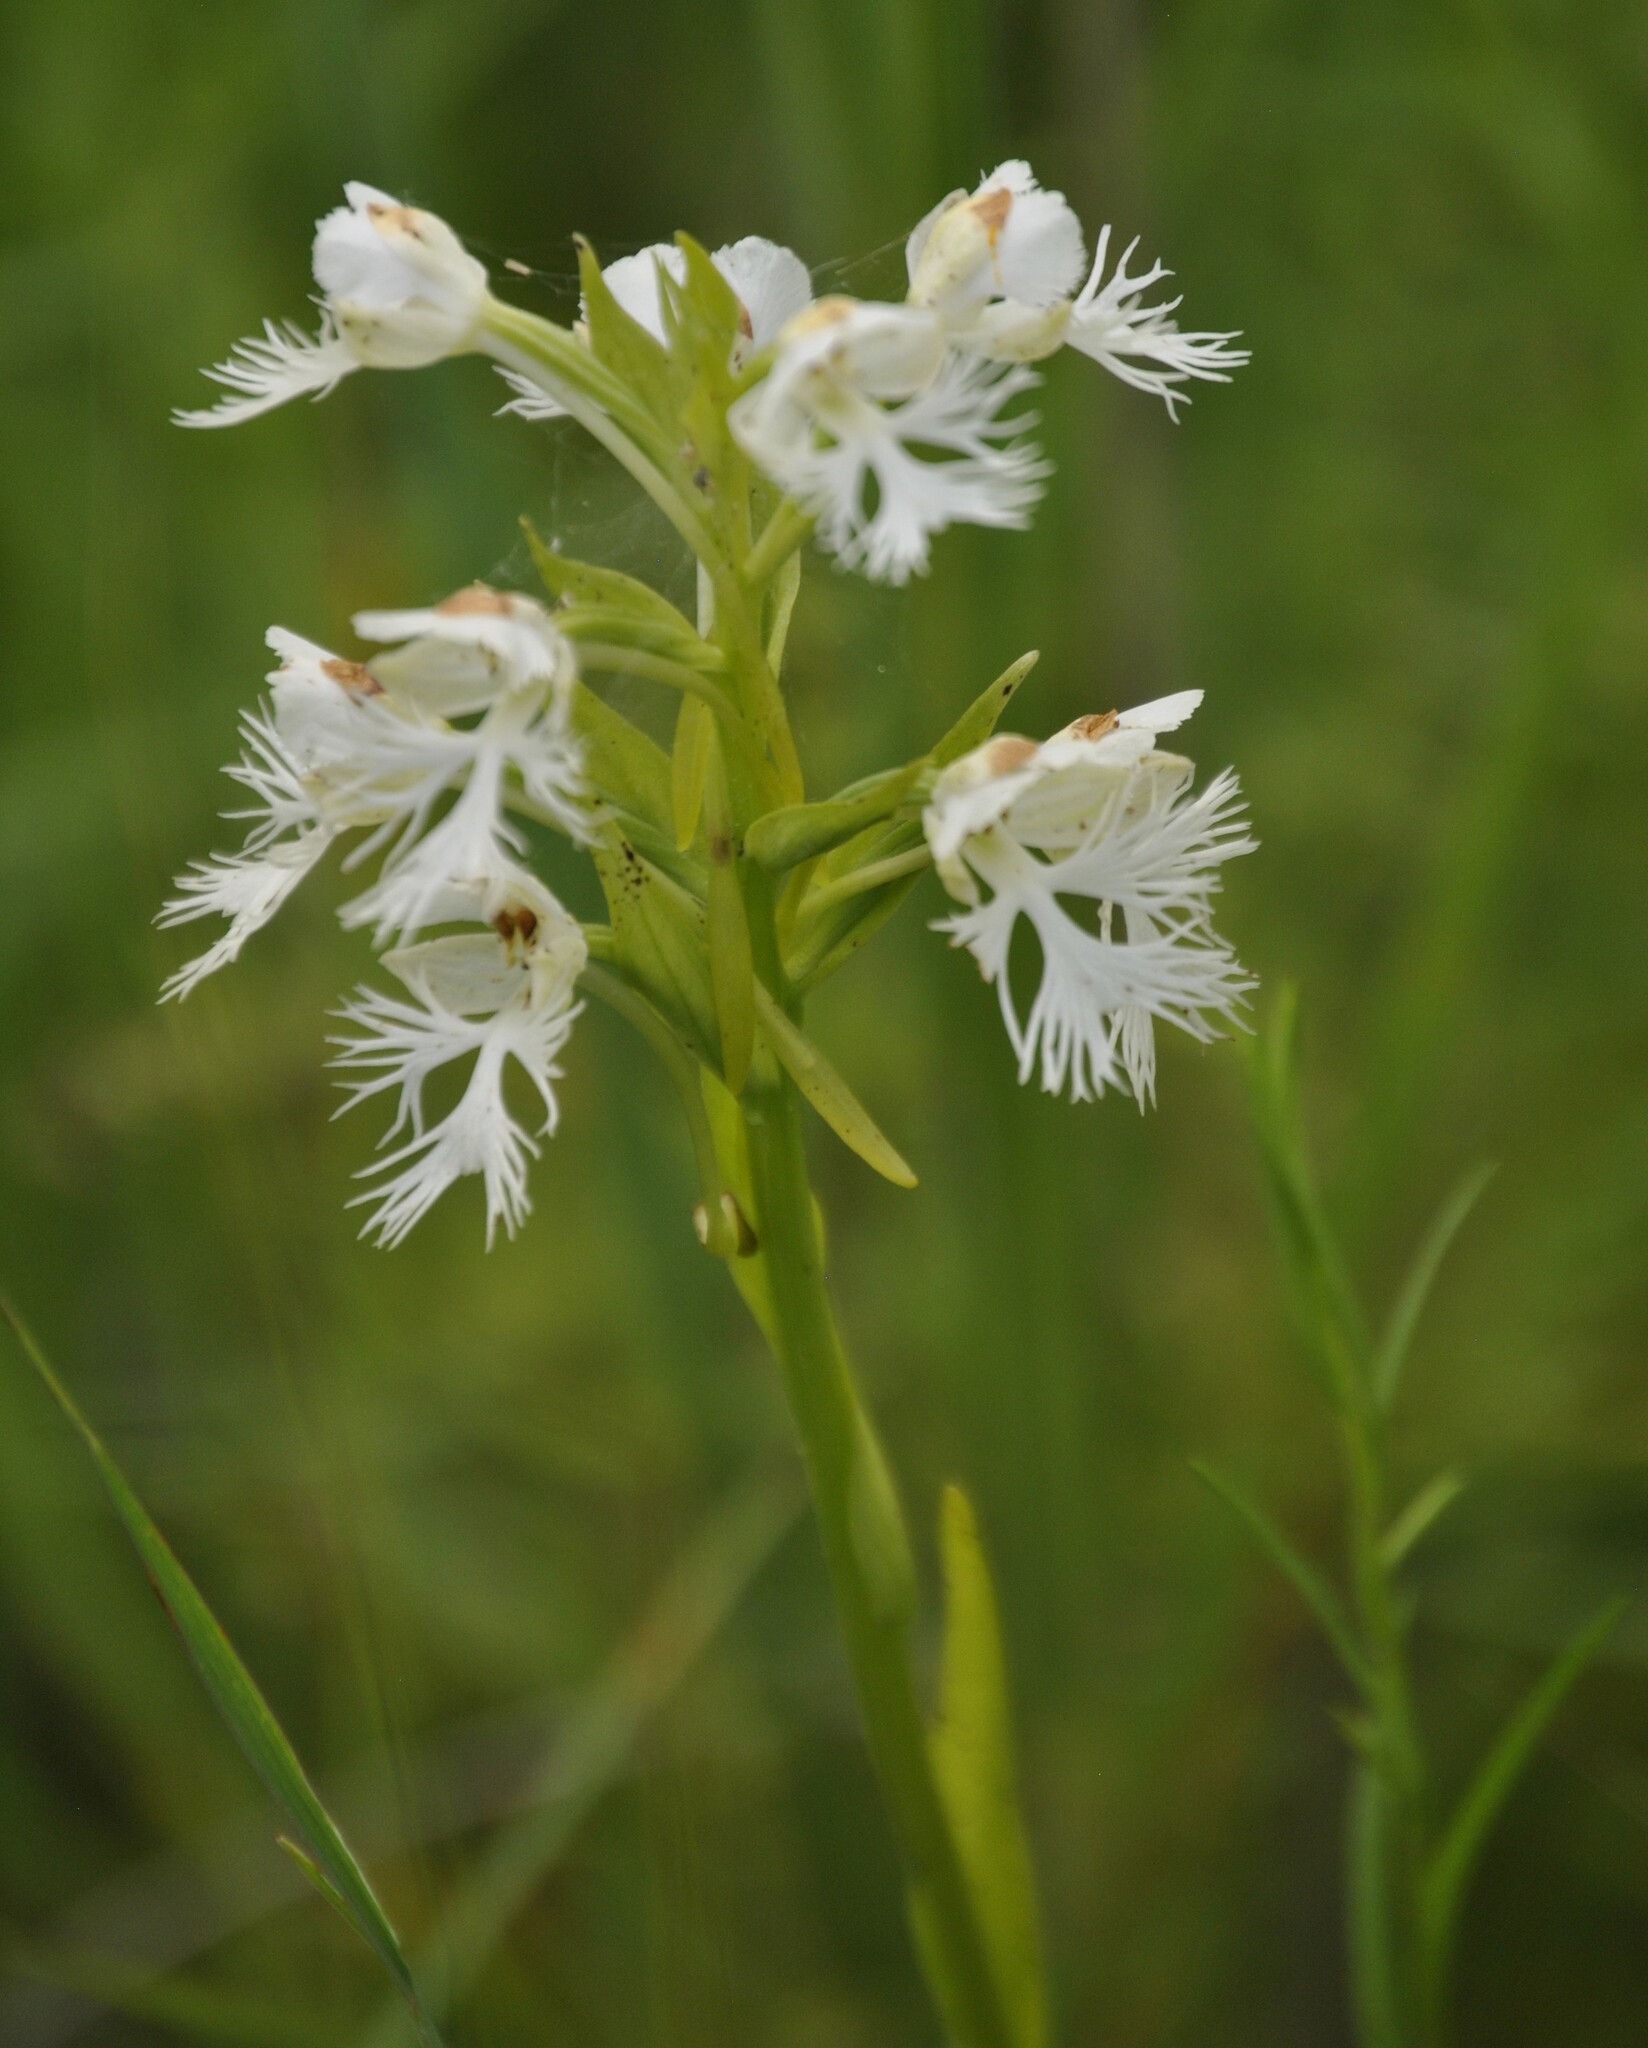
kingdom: Plantae
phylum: Tracheophyta
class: Liliopsida
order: Asparagales
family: Orchidaceae
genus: Platanthera
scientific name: Platanthera leucophaea
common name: Eastern prairie white-fringed orchid
